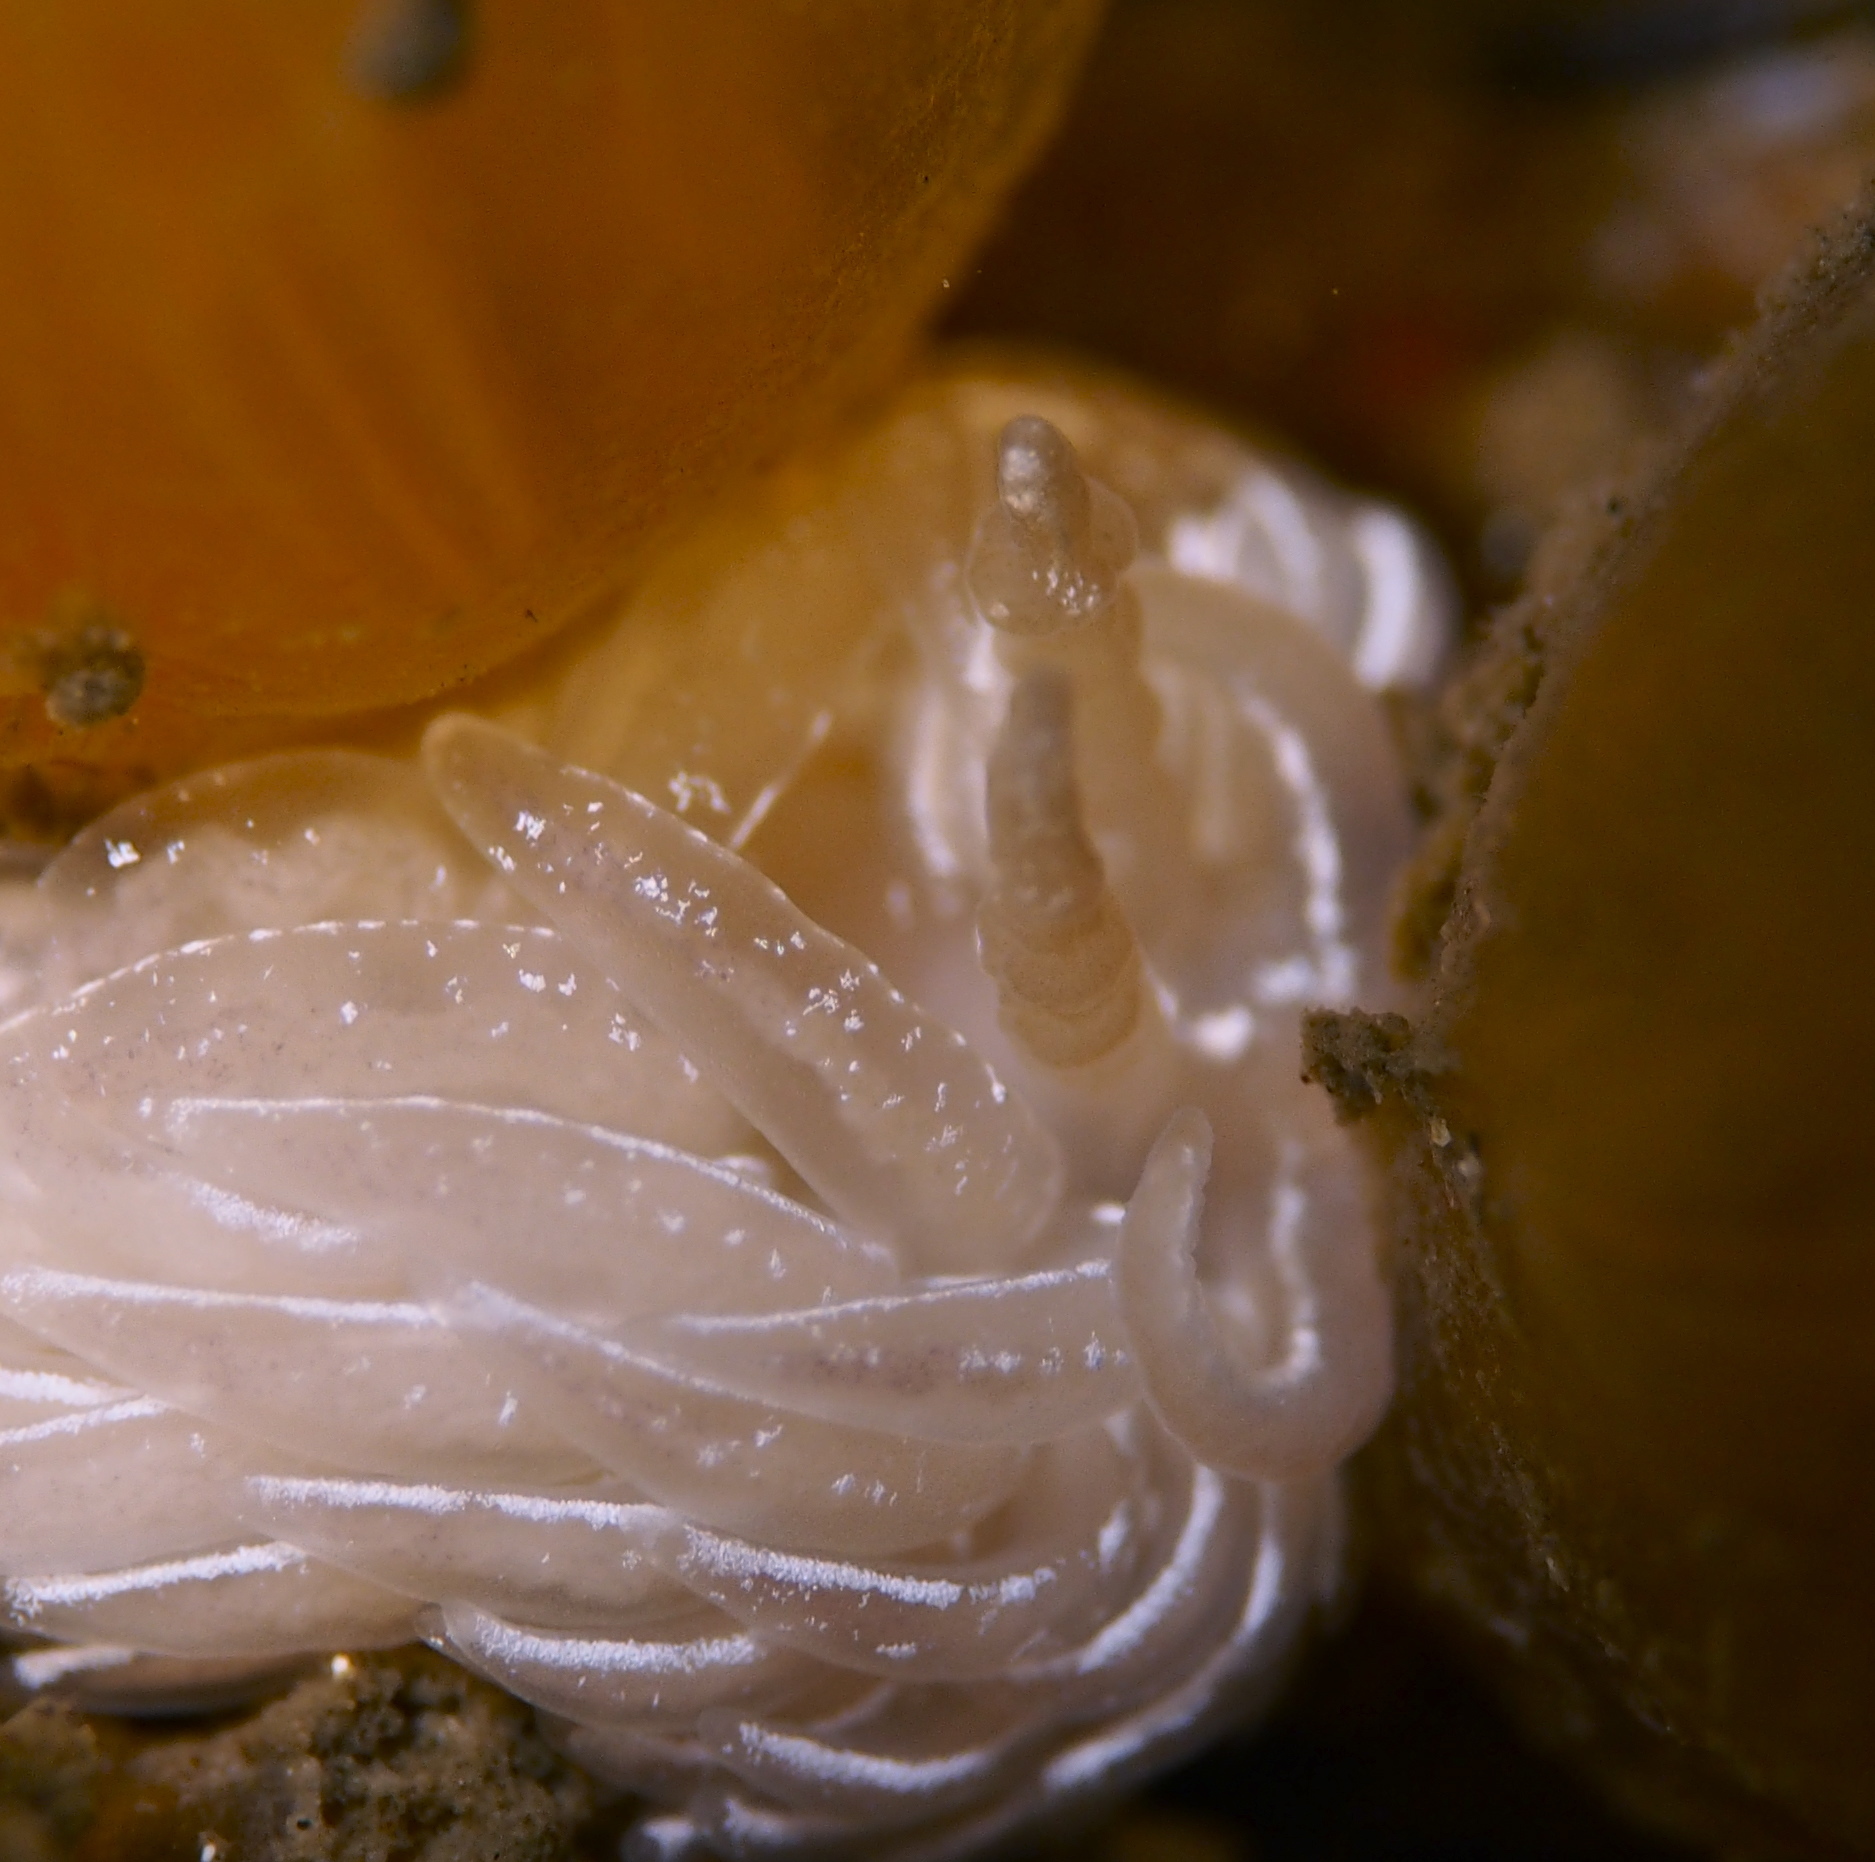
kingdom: Animalia
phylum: Mollusca
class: Gastropoda
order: Nudibranchia
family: Facelinidae
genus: Favorinus
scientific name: Favorinus blianus
